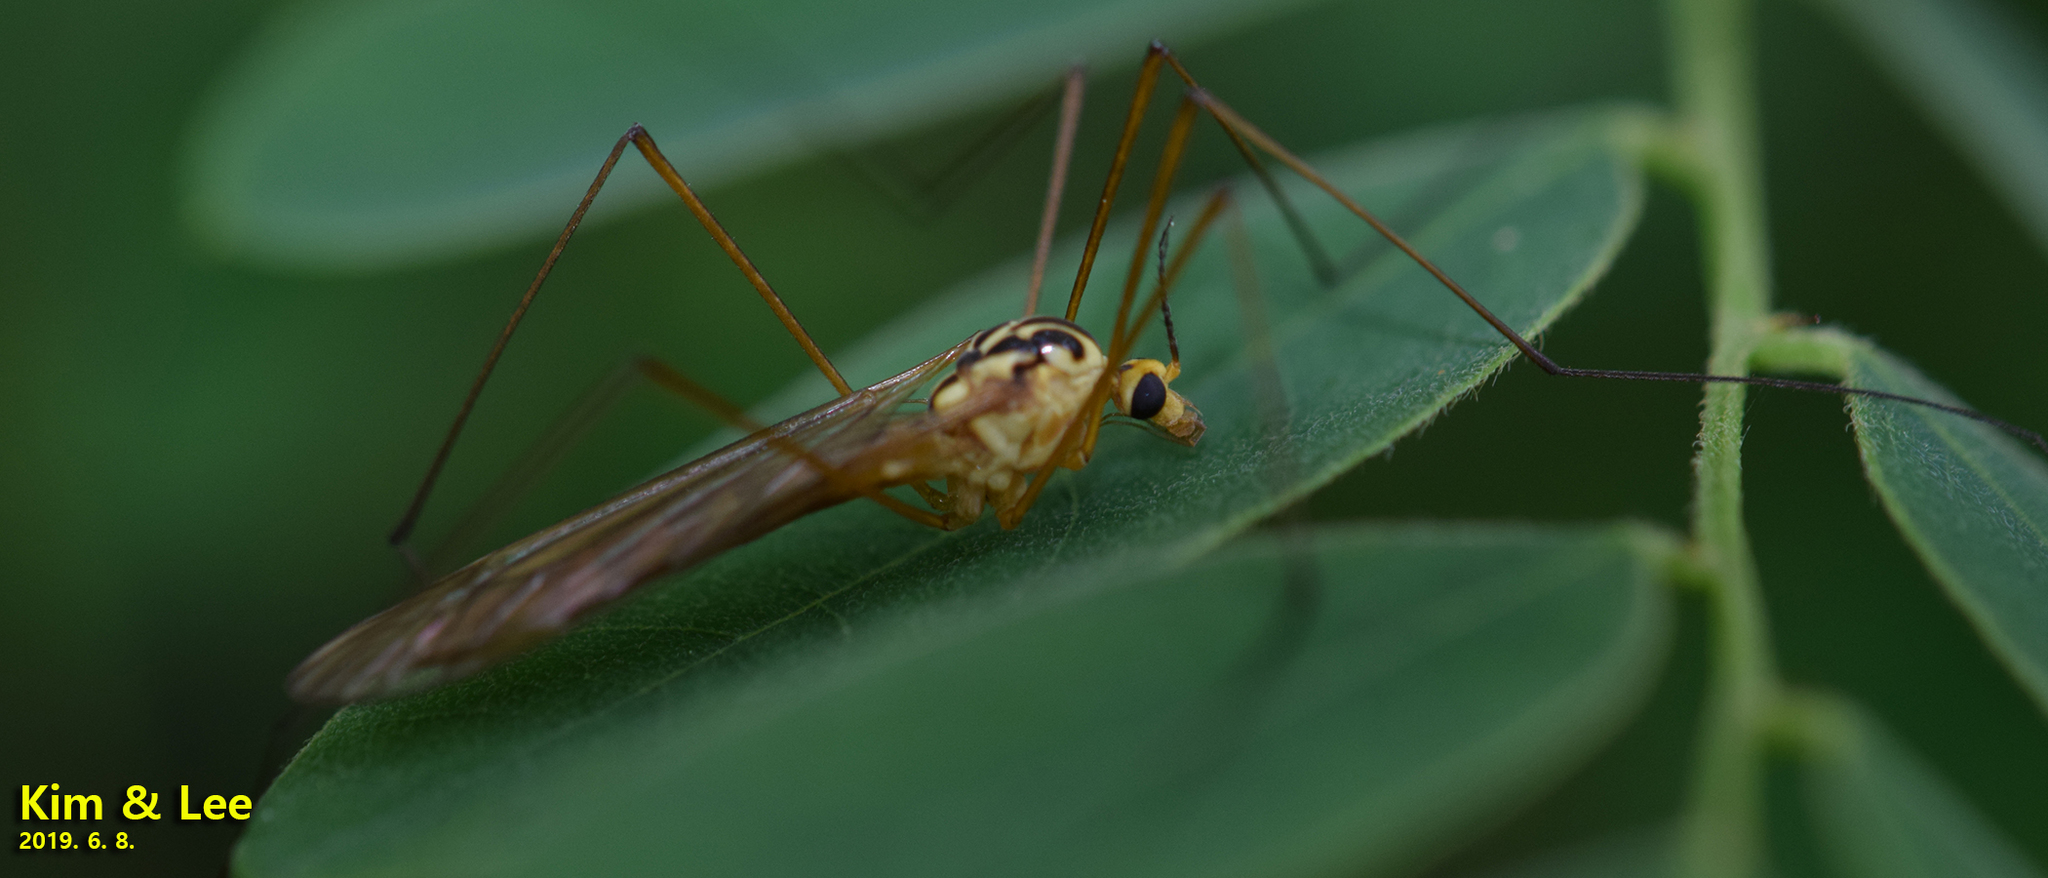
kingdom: Animalia
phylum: Arthropoda
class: Insecta
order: Diptera
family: Tipulidae
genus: Nephrotoma
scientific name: Nephrotoma virgata
